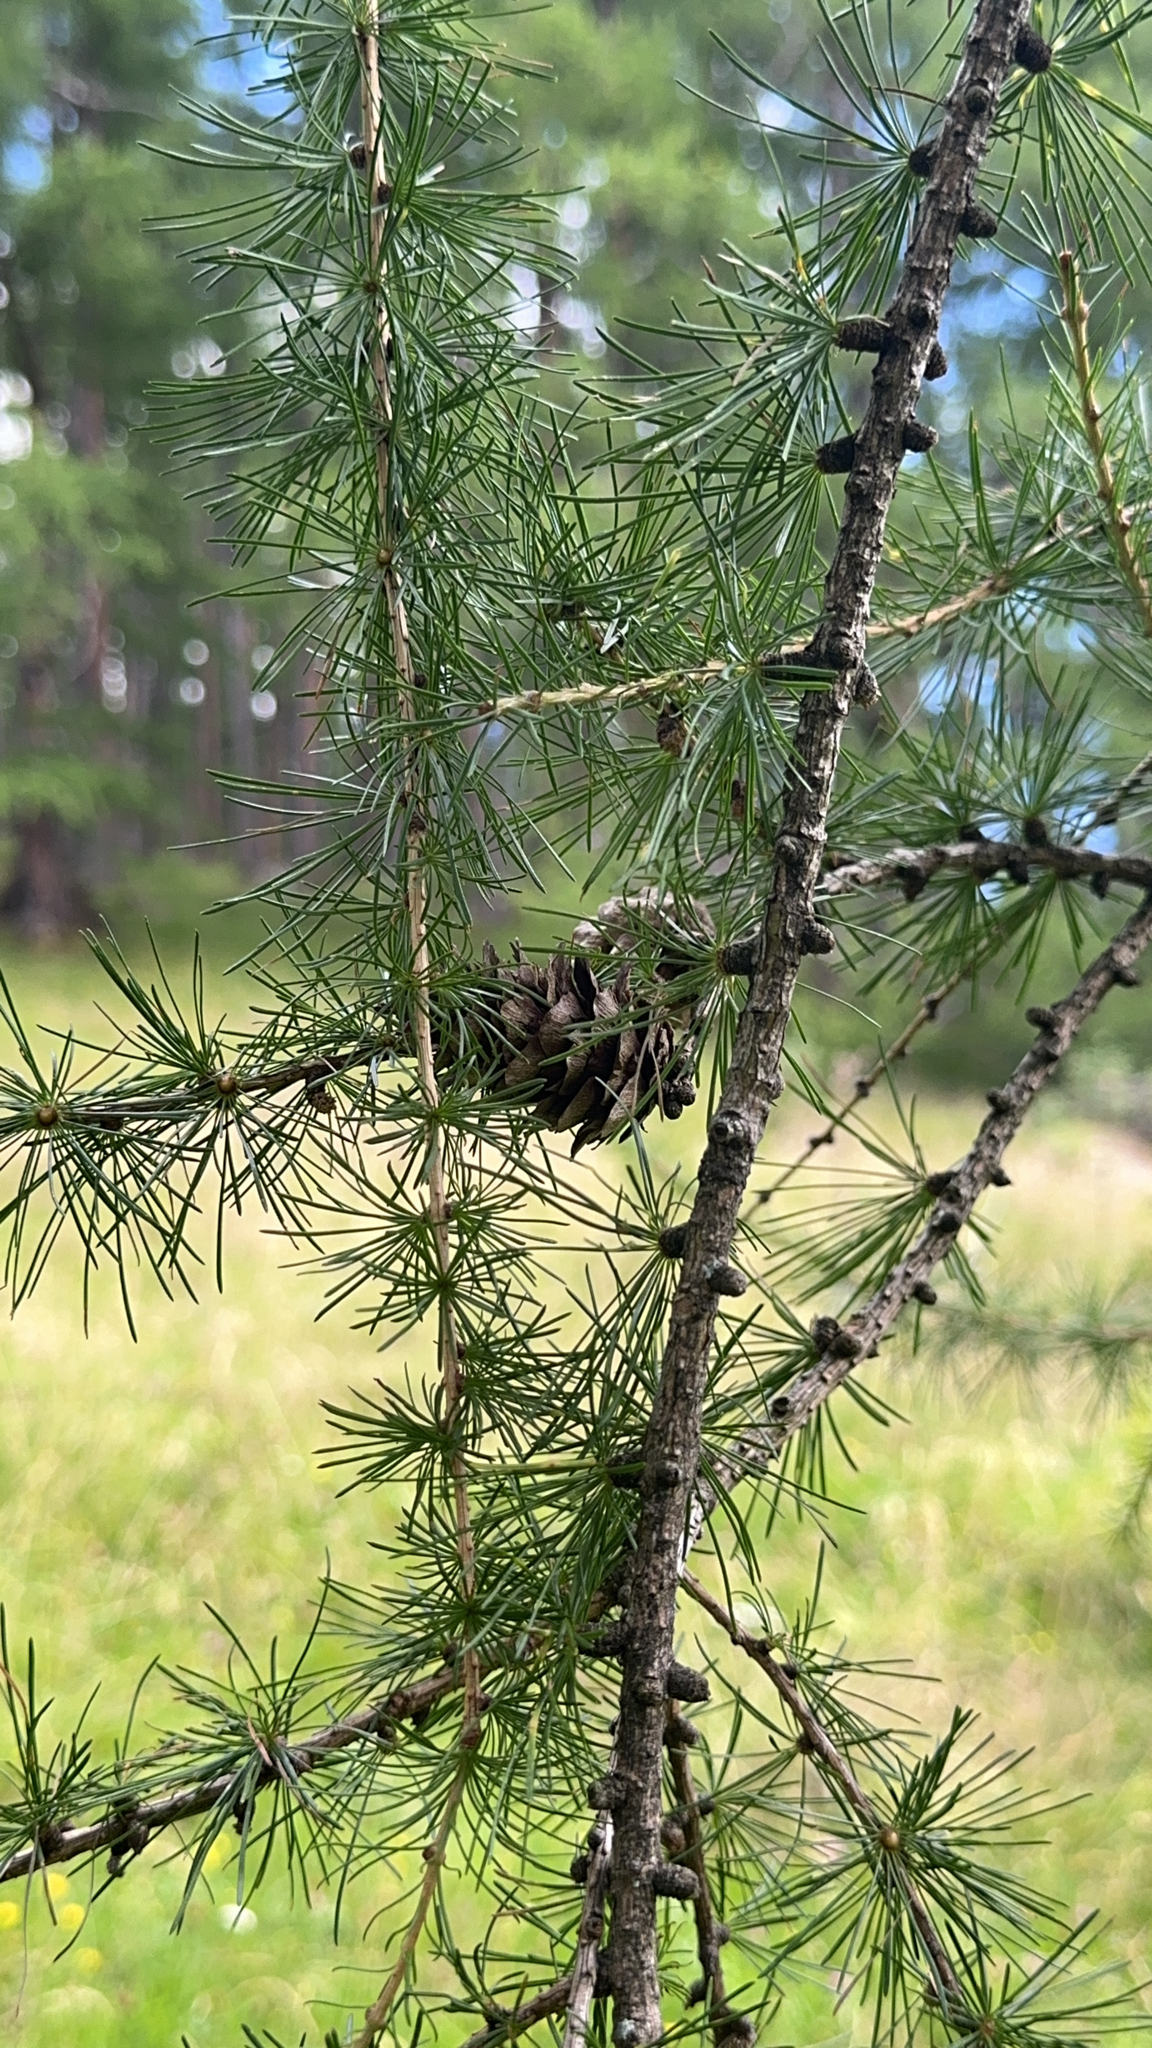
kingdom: Plantae
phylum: Tracheophyta
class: Pinopsida
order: Pinales
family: Pinaceae
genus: Larix
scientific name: Larix decidua
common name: European larch
